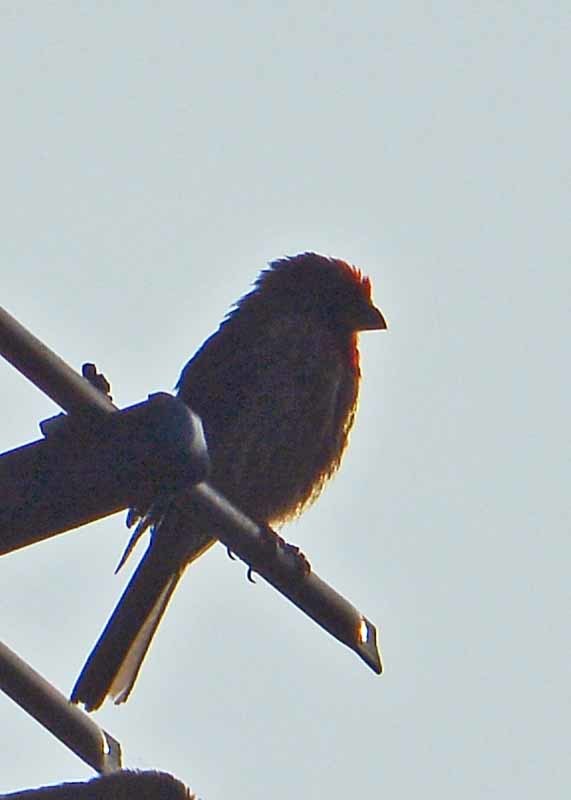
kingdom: Animalia
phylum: Chordata
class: Aves
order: Passeriformes
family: Fringillidae
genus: Haemorhous
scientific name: Haemorhous mexicanus
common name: House finch
